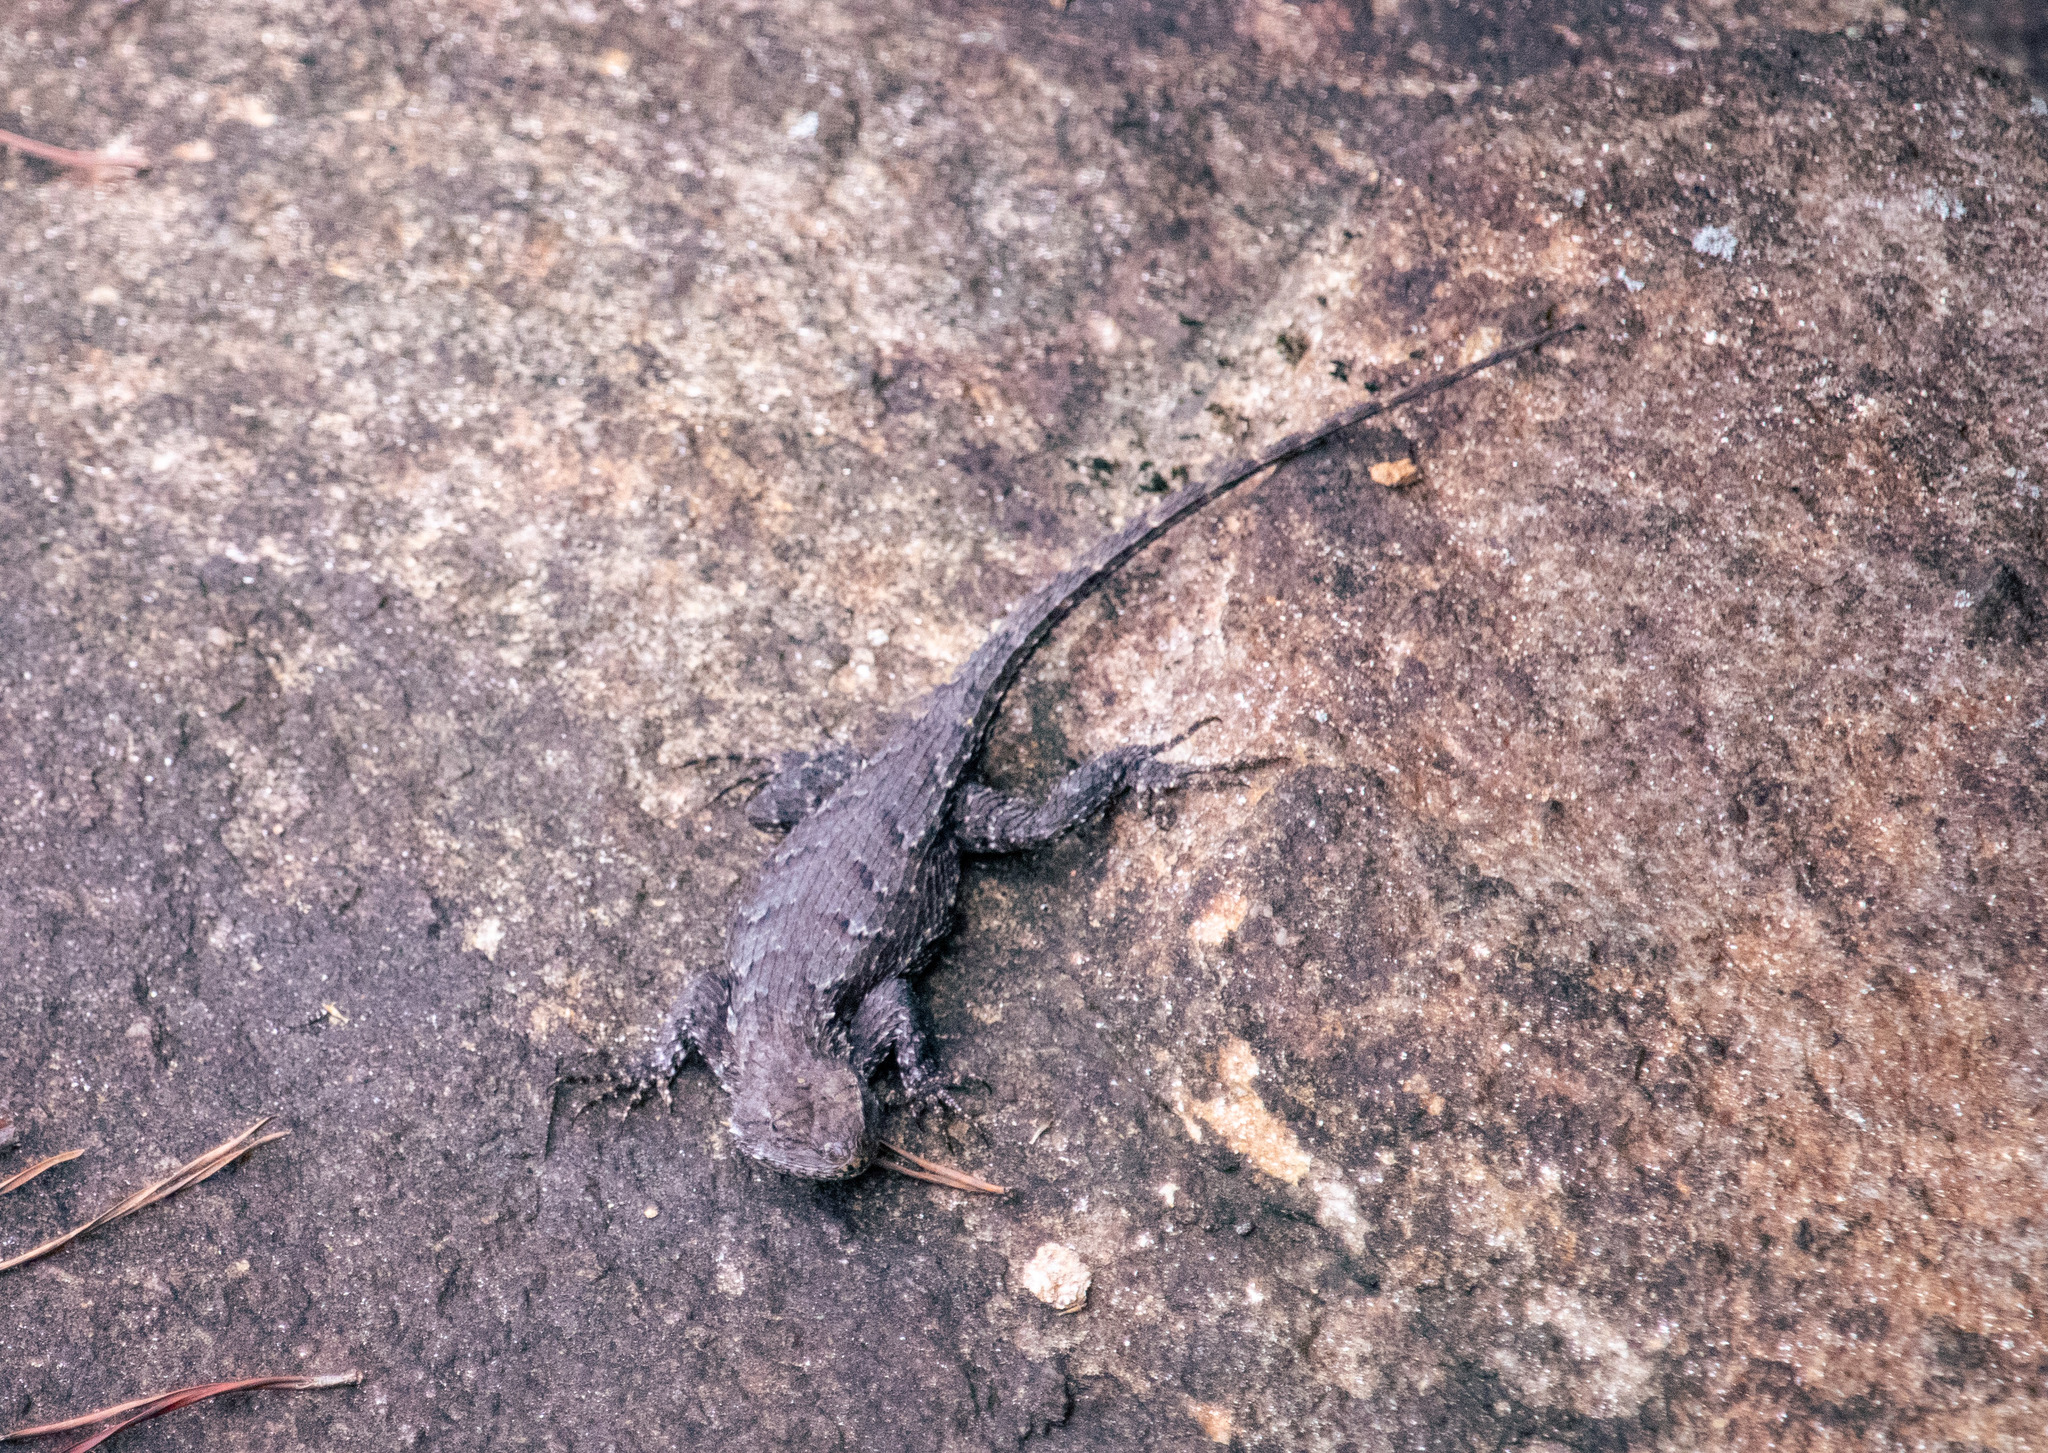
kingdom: Animalia
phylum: Chordata
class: Squamata
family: Phrynosomatidae
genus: Sceloporus
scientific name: Sceloporus undulatus
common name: Eastern fence lizard
